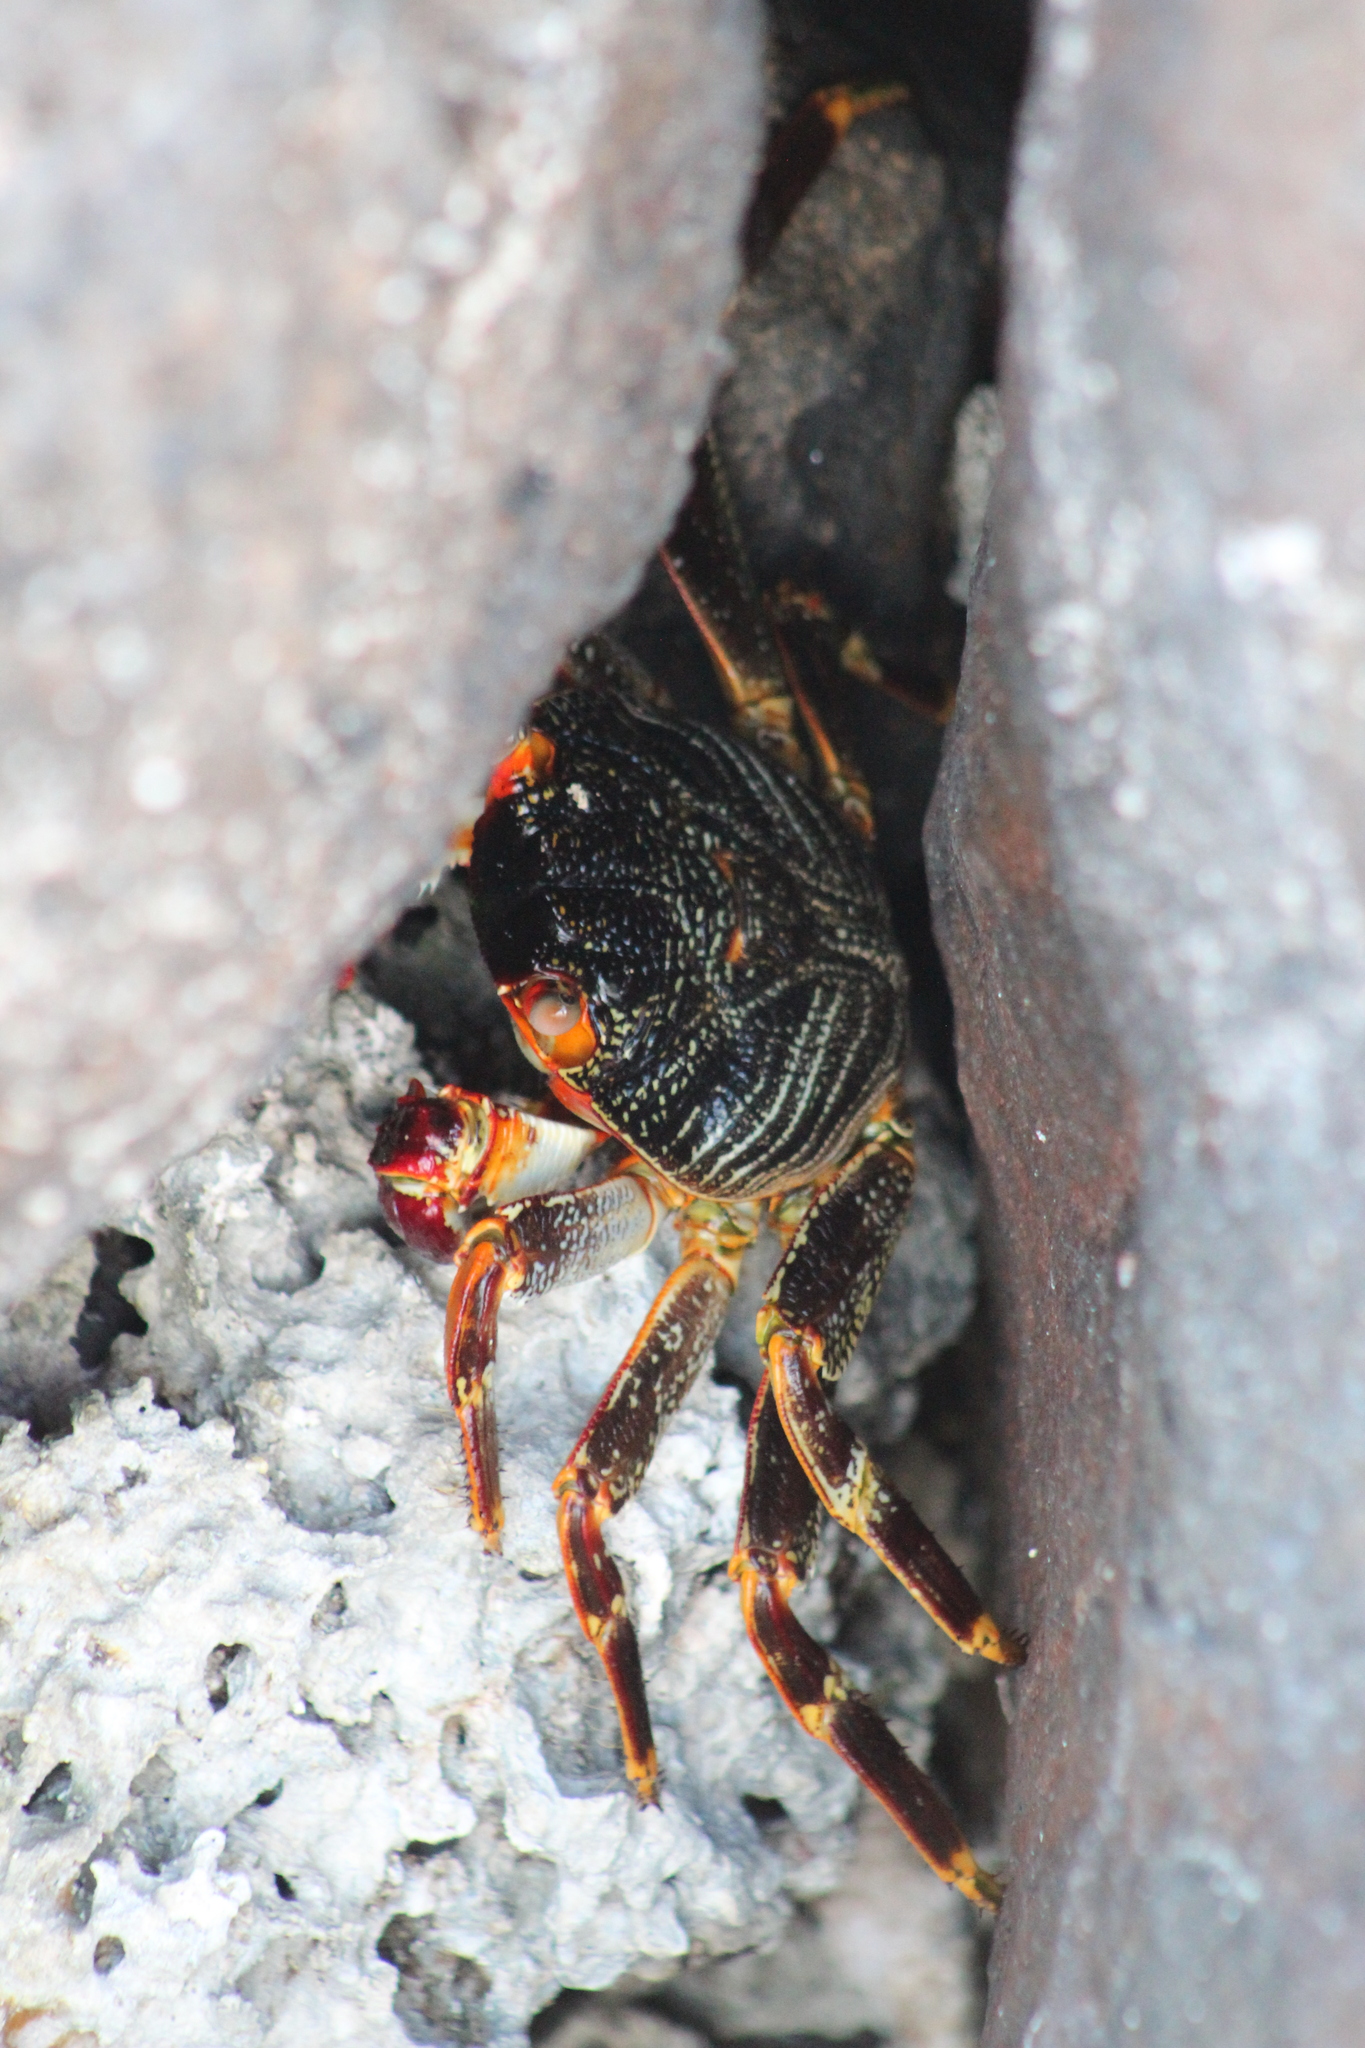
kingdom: Animalia
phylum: Arthropoda
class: Malacostraca
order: Decapoda
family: Grapsidae
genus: Grapsus
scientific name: Grapsus tenuicrustatus
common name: Natal lightfoot crab
